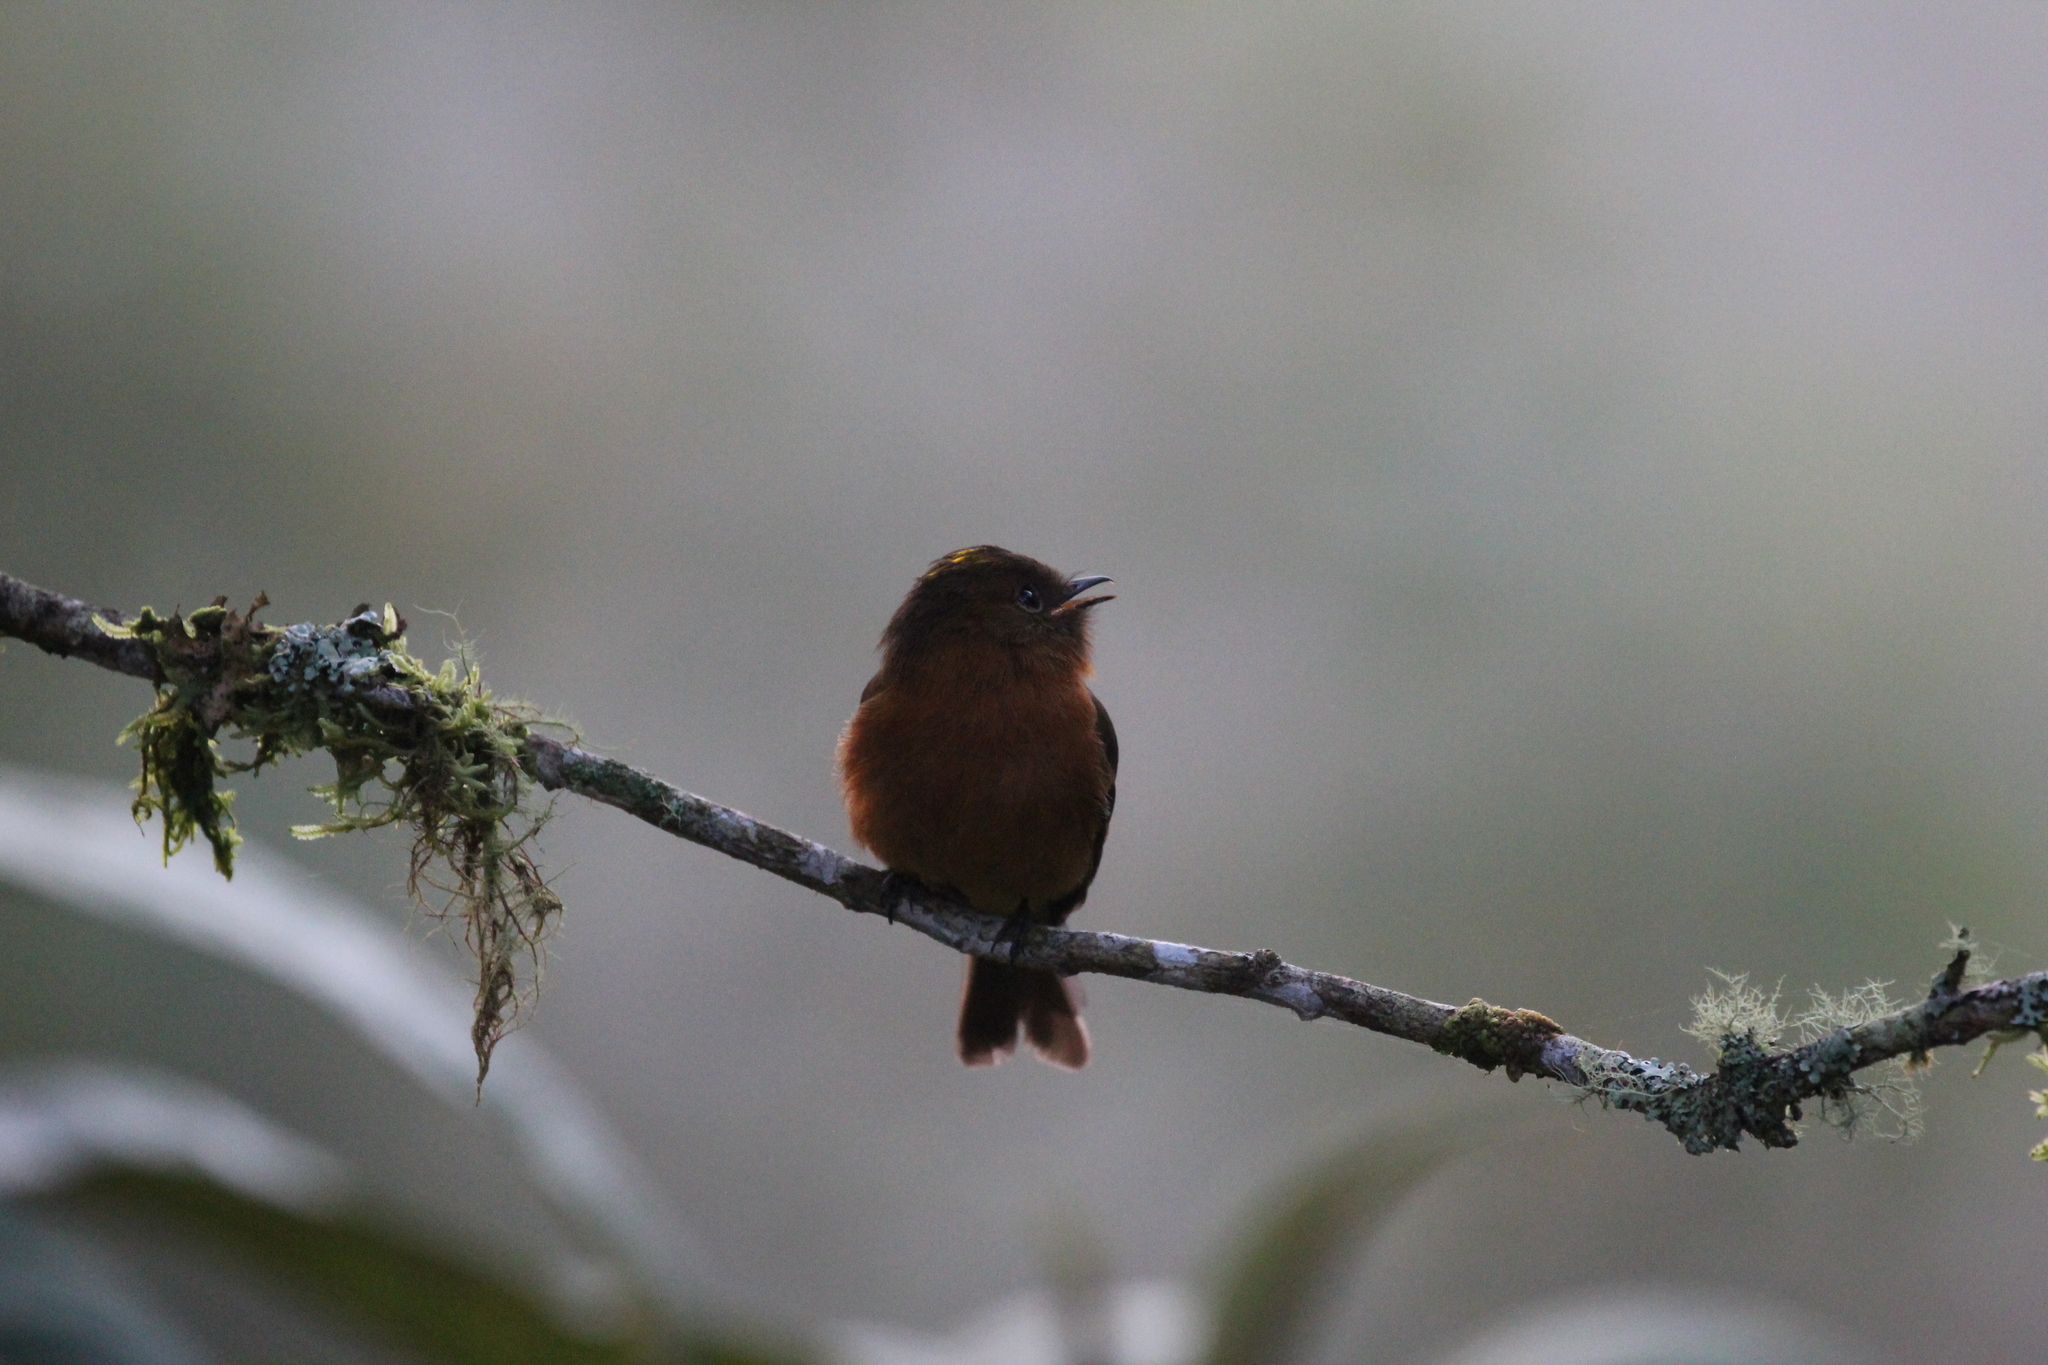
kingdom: Animalia
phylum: Chordata
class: Aves
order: Passeriformes
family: Tyrannidae
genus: Pyrrhomyias
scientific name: Pyrrhomyias cinnamomeus
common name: Cinnamon flycatcher
